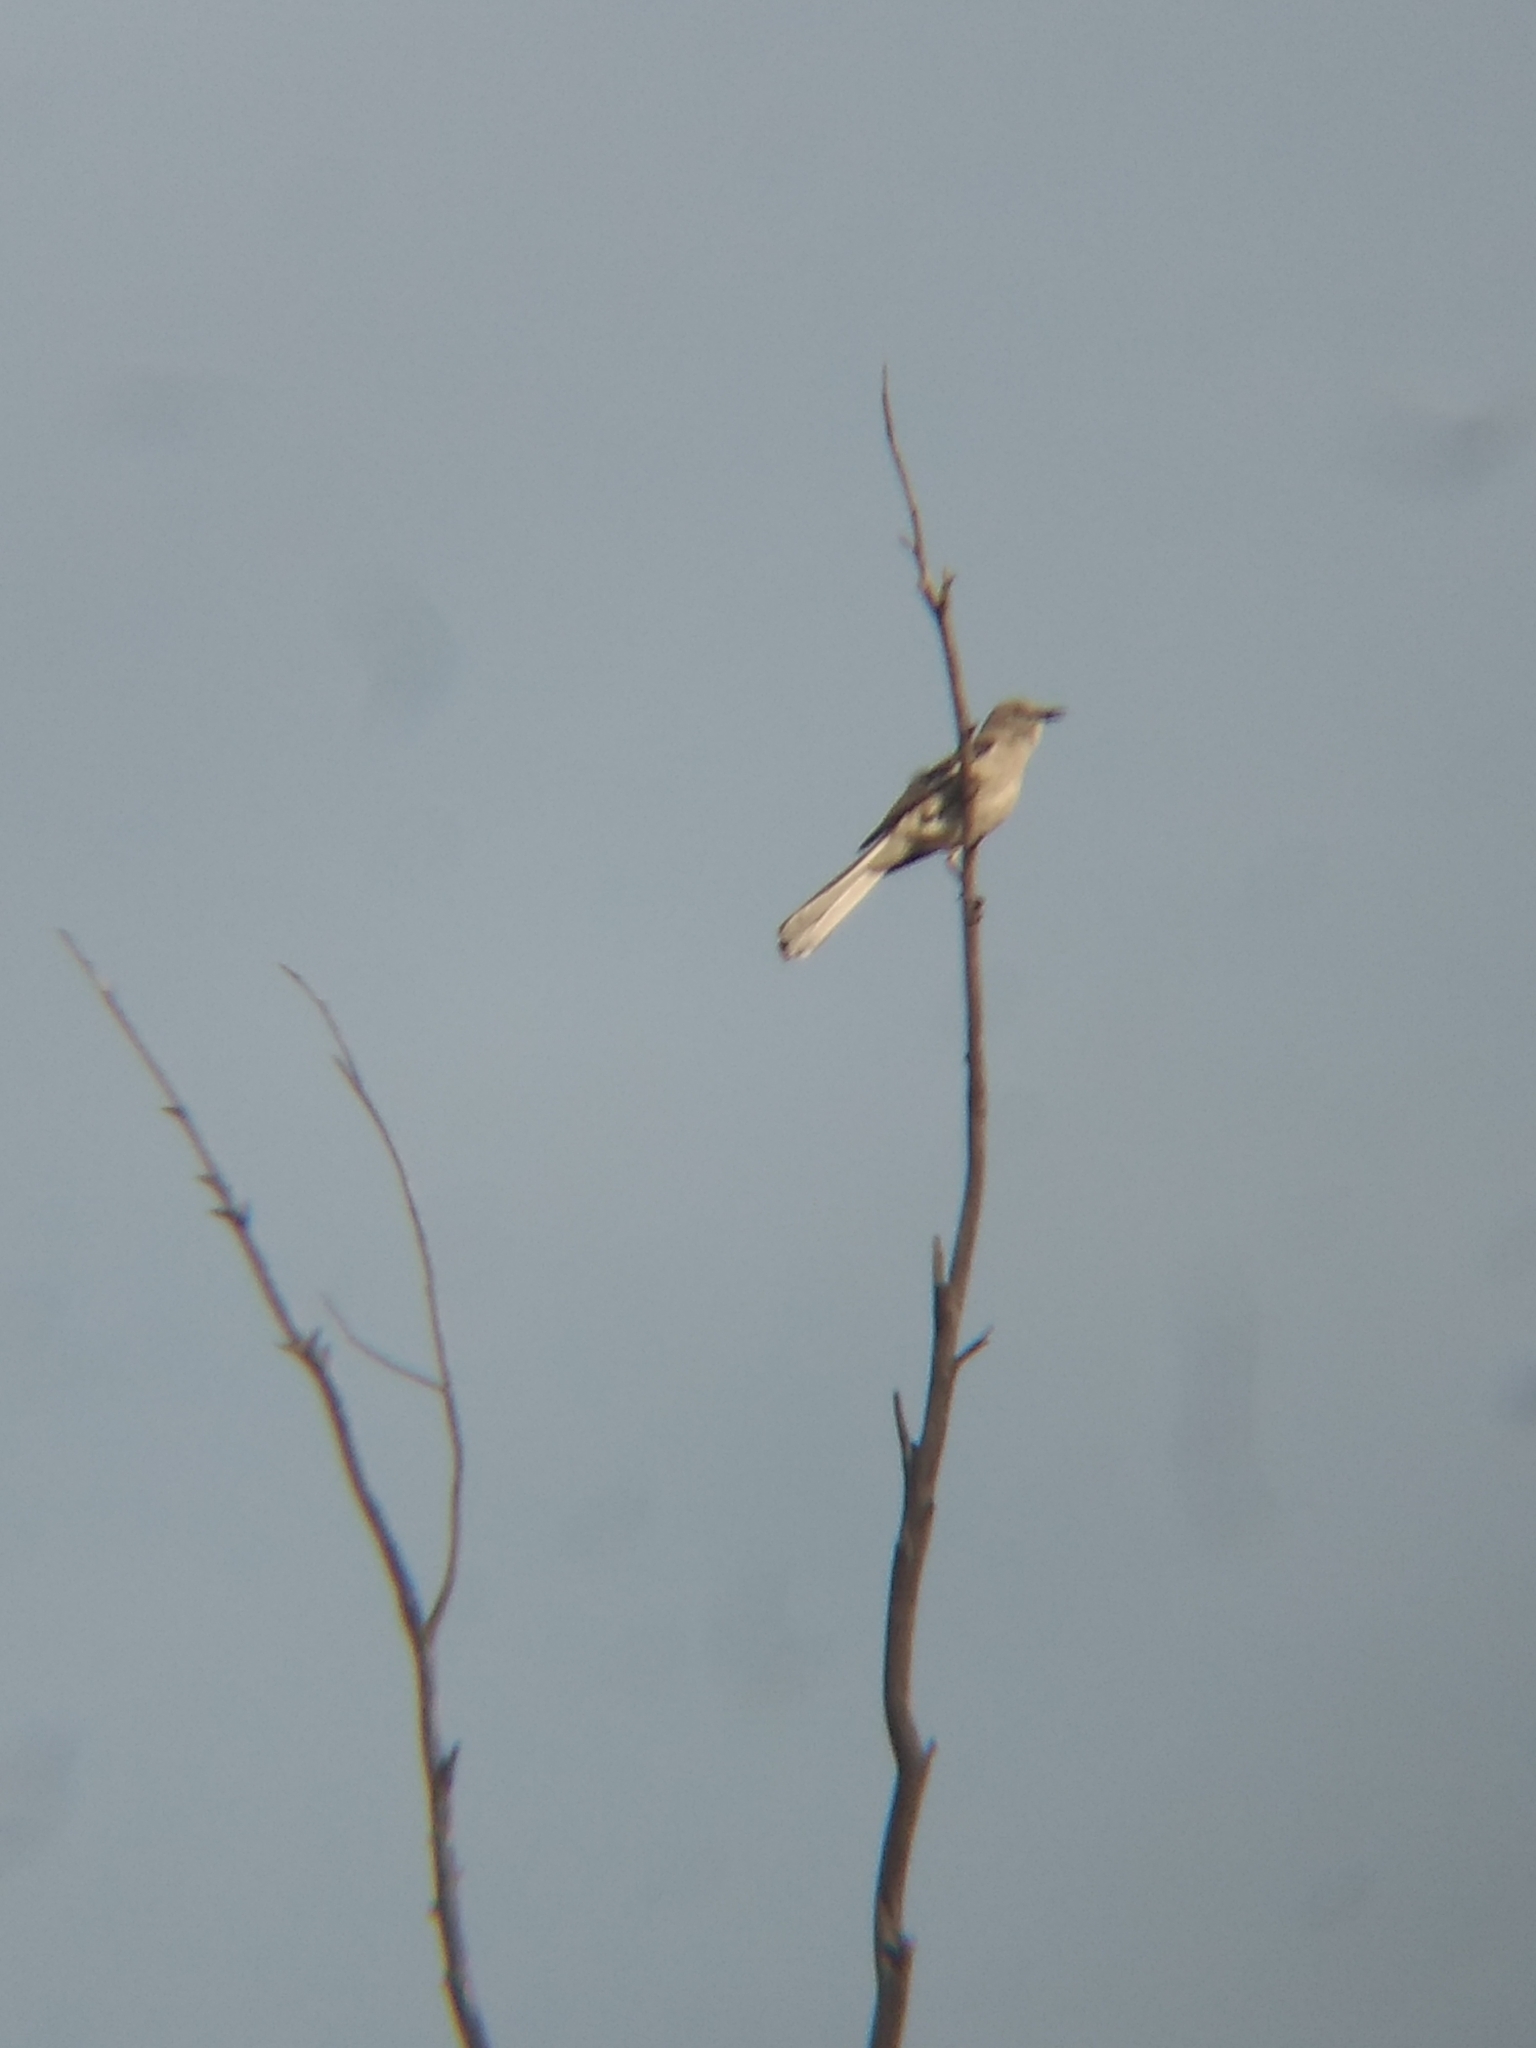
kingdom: Animalia
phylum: Chordata
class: Aves
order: Passeriformes
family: Mimidae
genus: Mimus
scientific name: Mimus polyglottos
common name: Northern mockingbird
